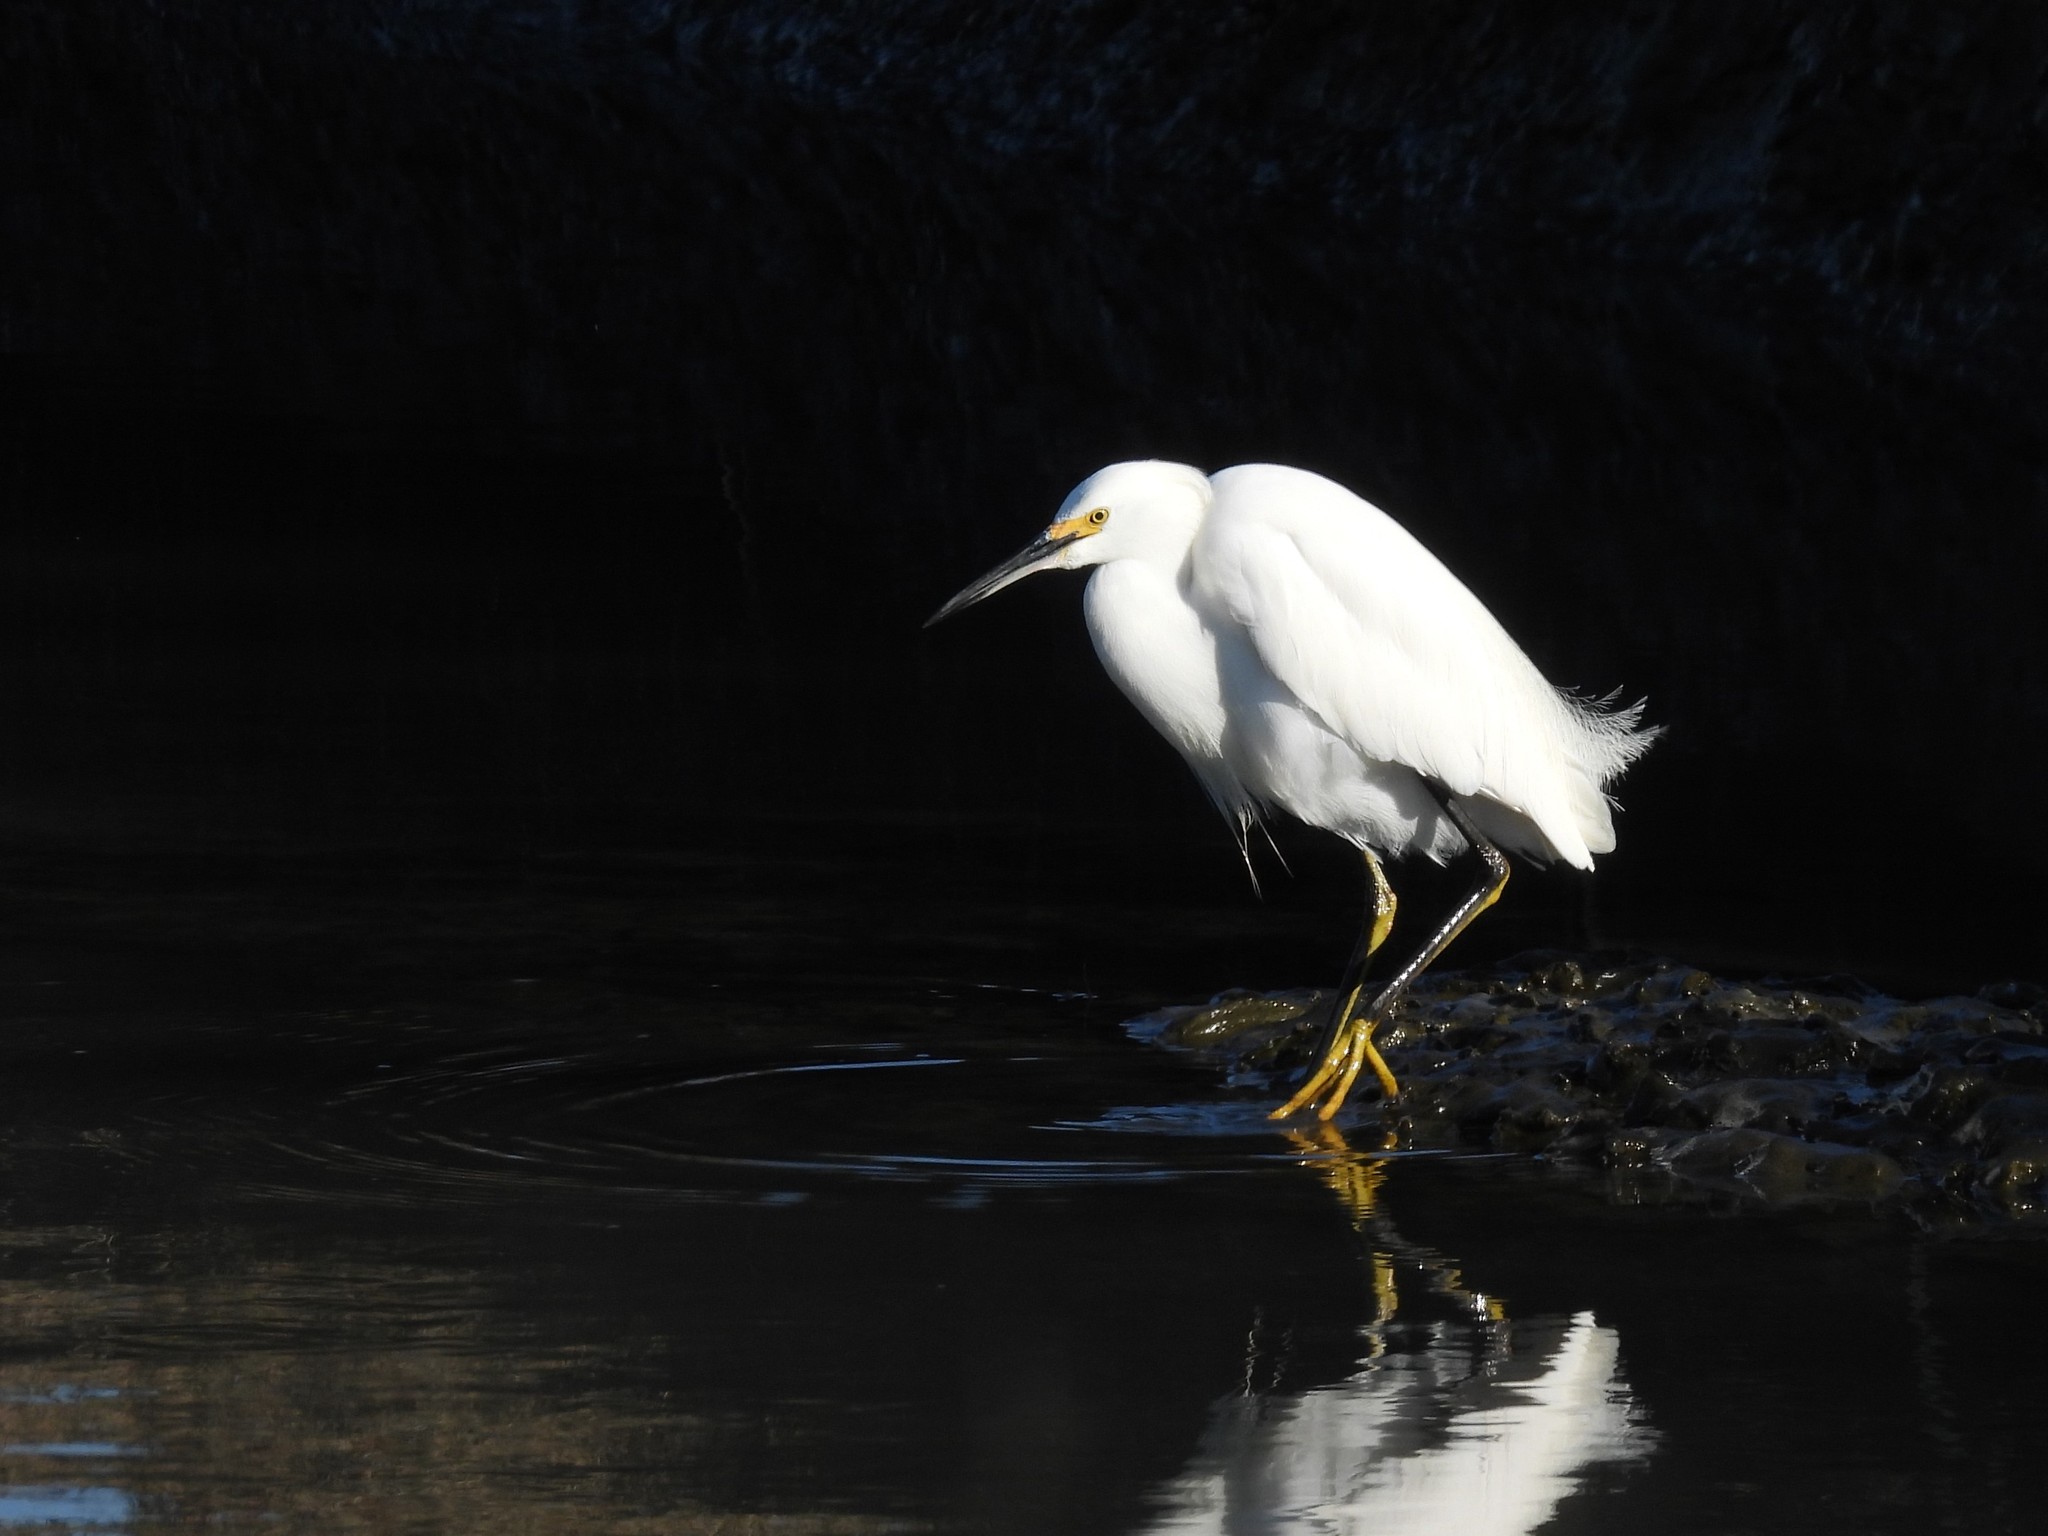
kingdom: Animalia
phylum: Chordata
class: Aves
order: Pelecaniformes
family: Ardeidae
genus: Egretta
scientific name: Egretta thula
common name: Snowy egret
